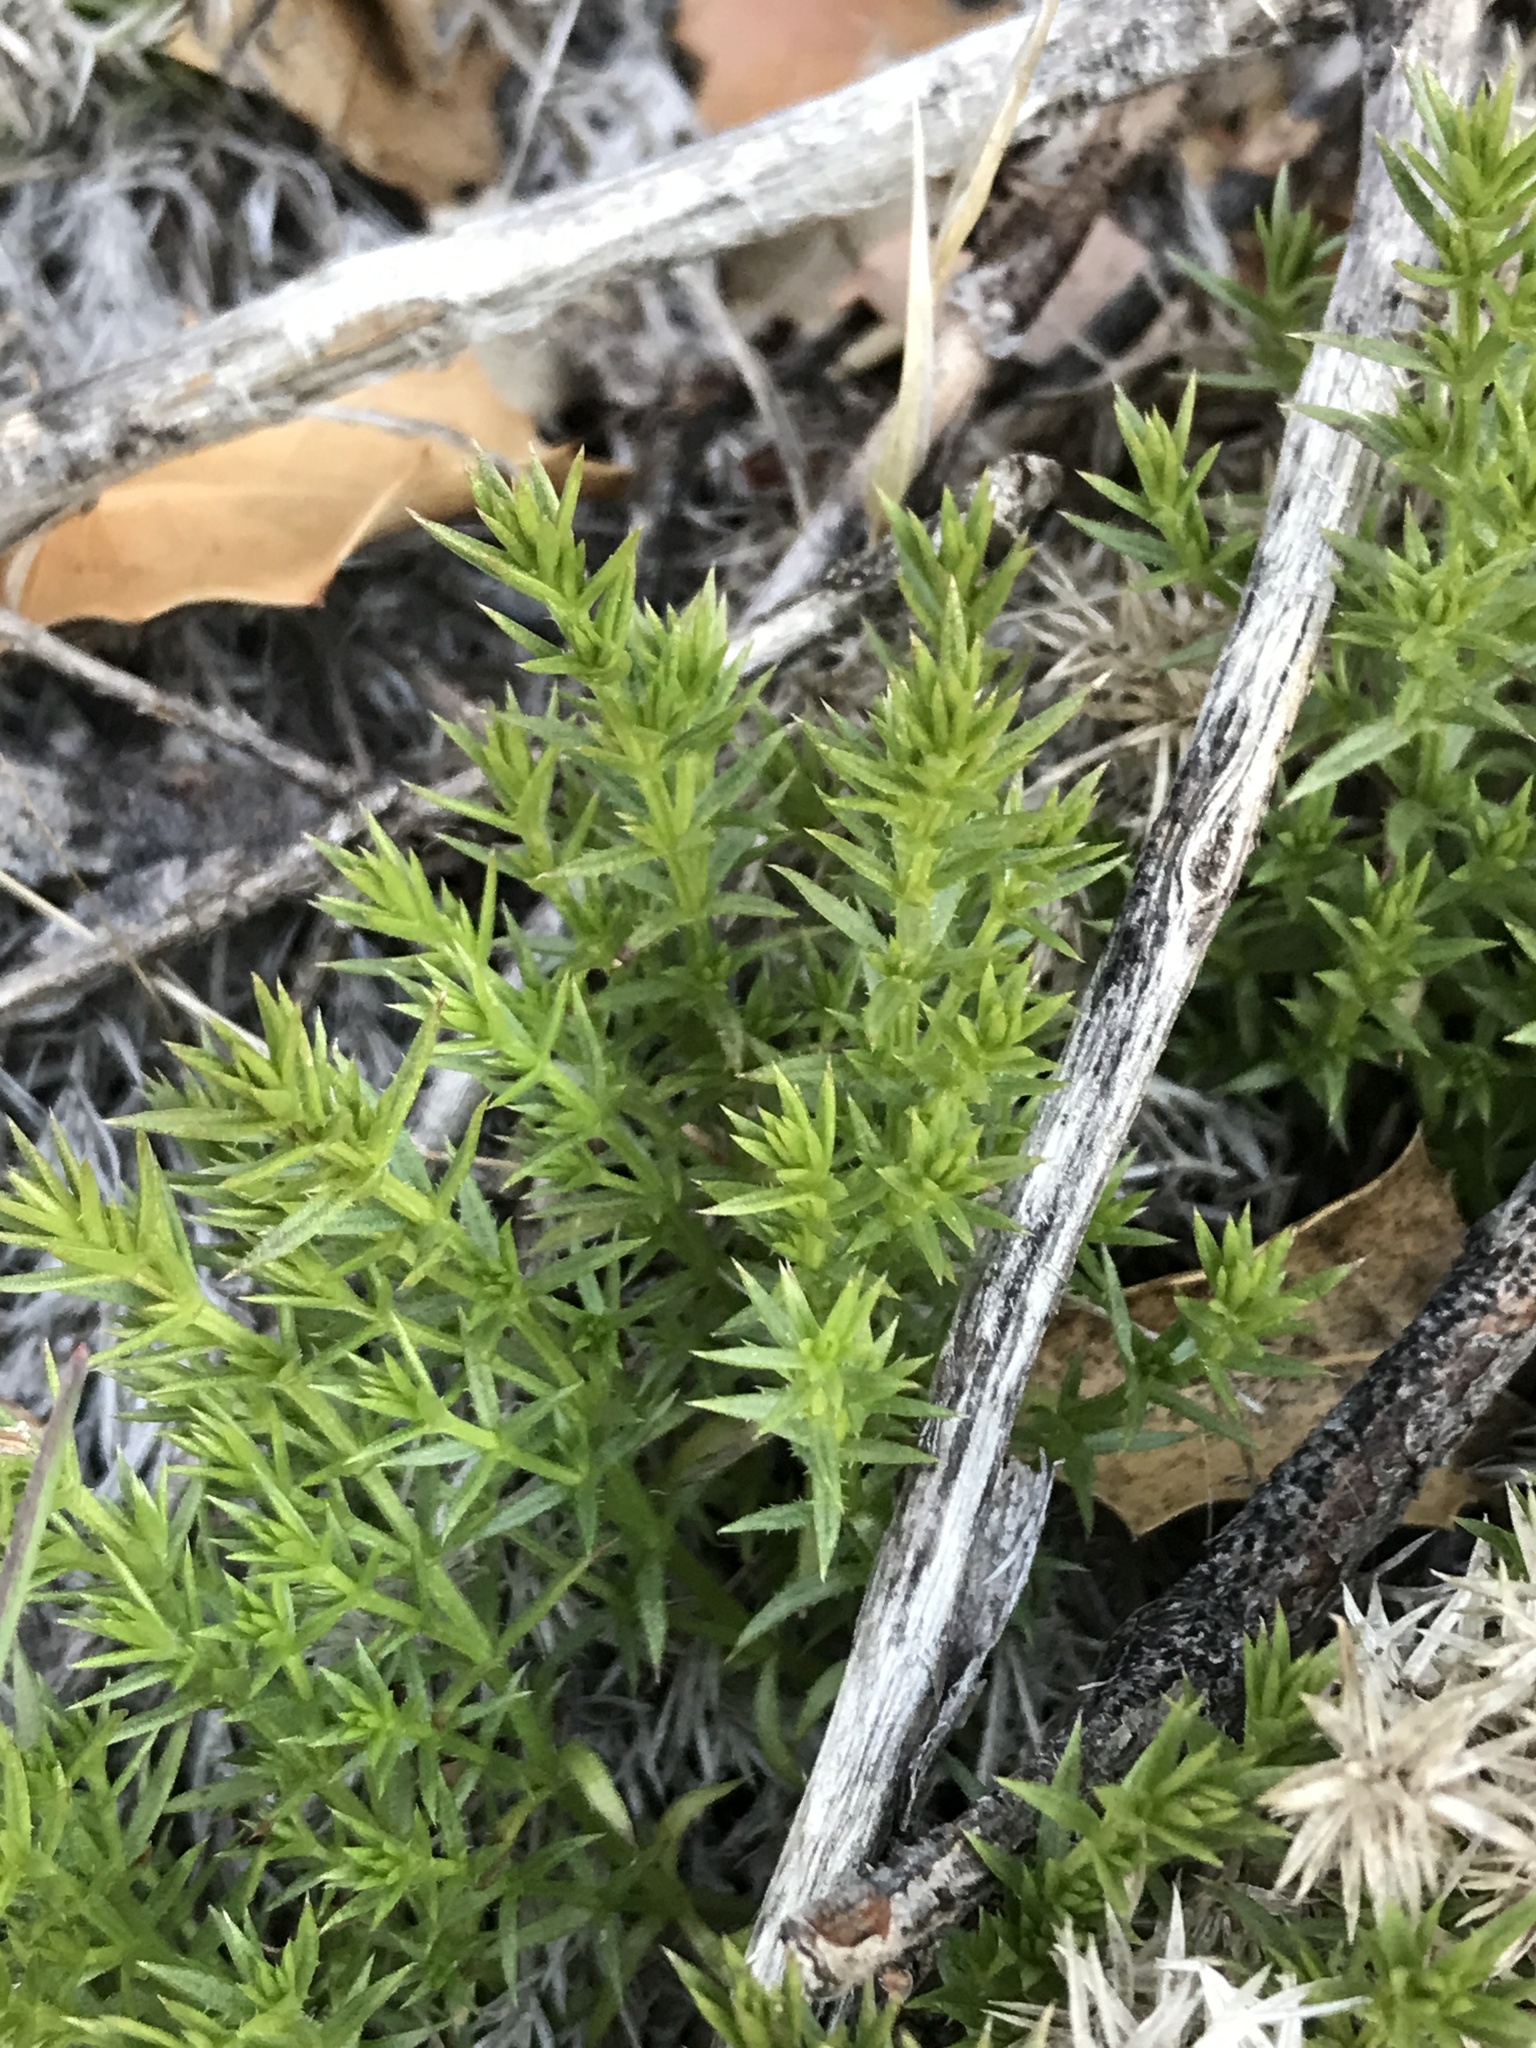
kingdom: Plantae
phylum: Tracheophyta
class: Magnoliopsida
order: Gentianales
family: Rubiaceae
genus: Galium
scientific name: Galium andrewsii
